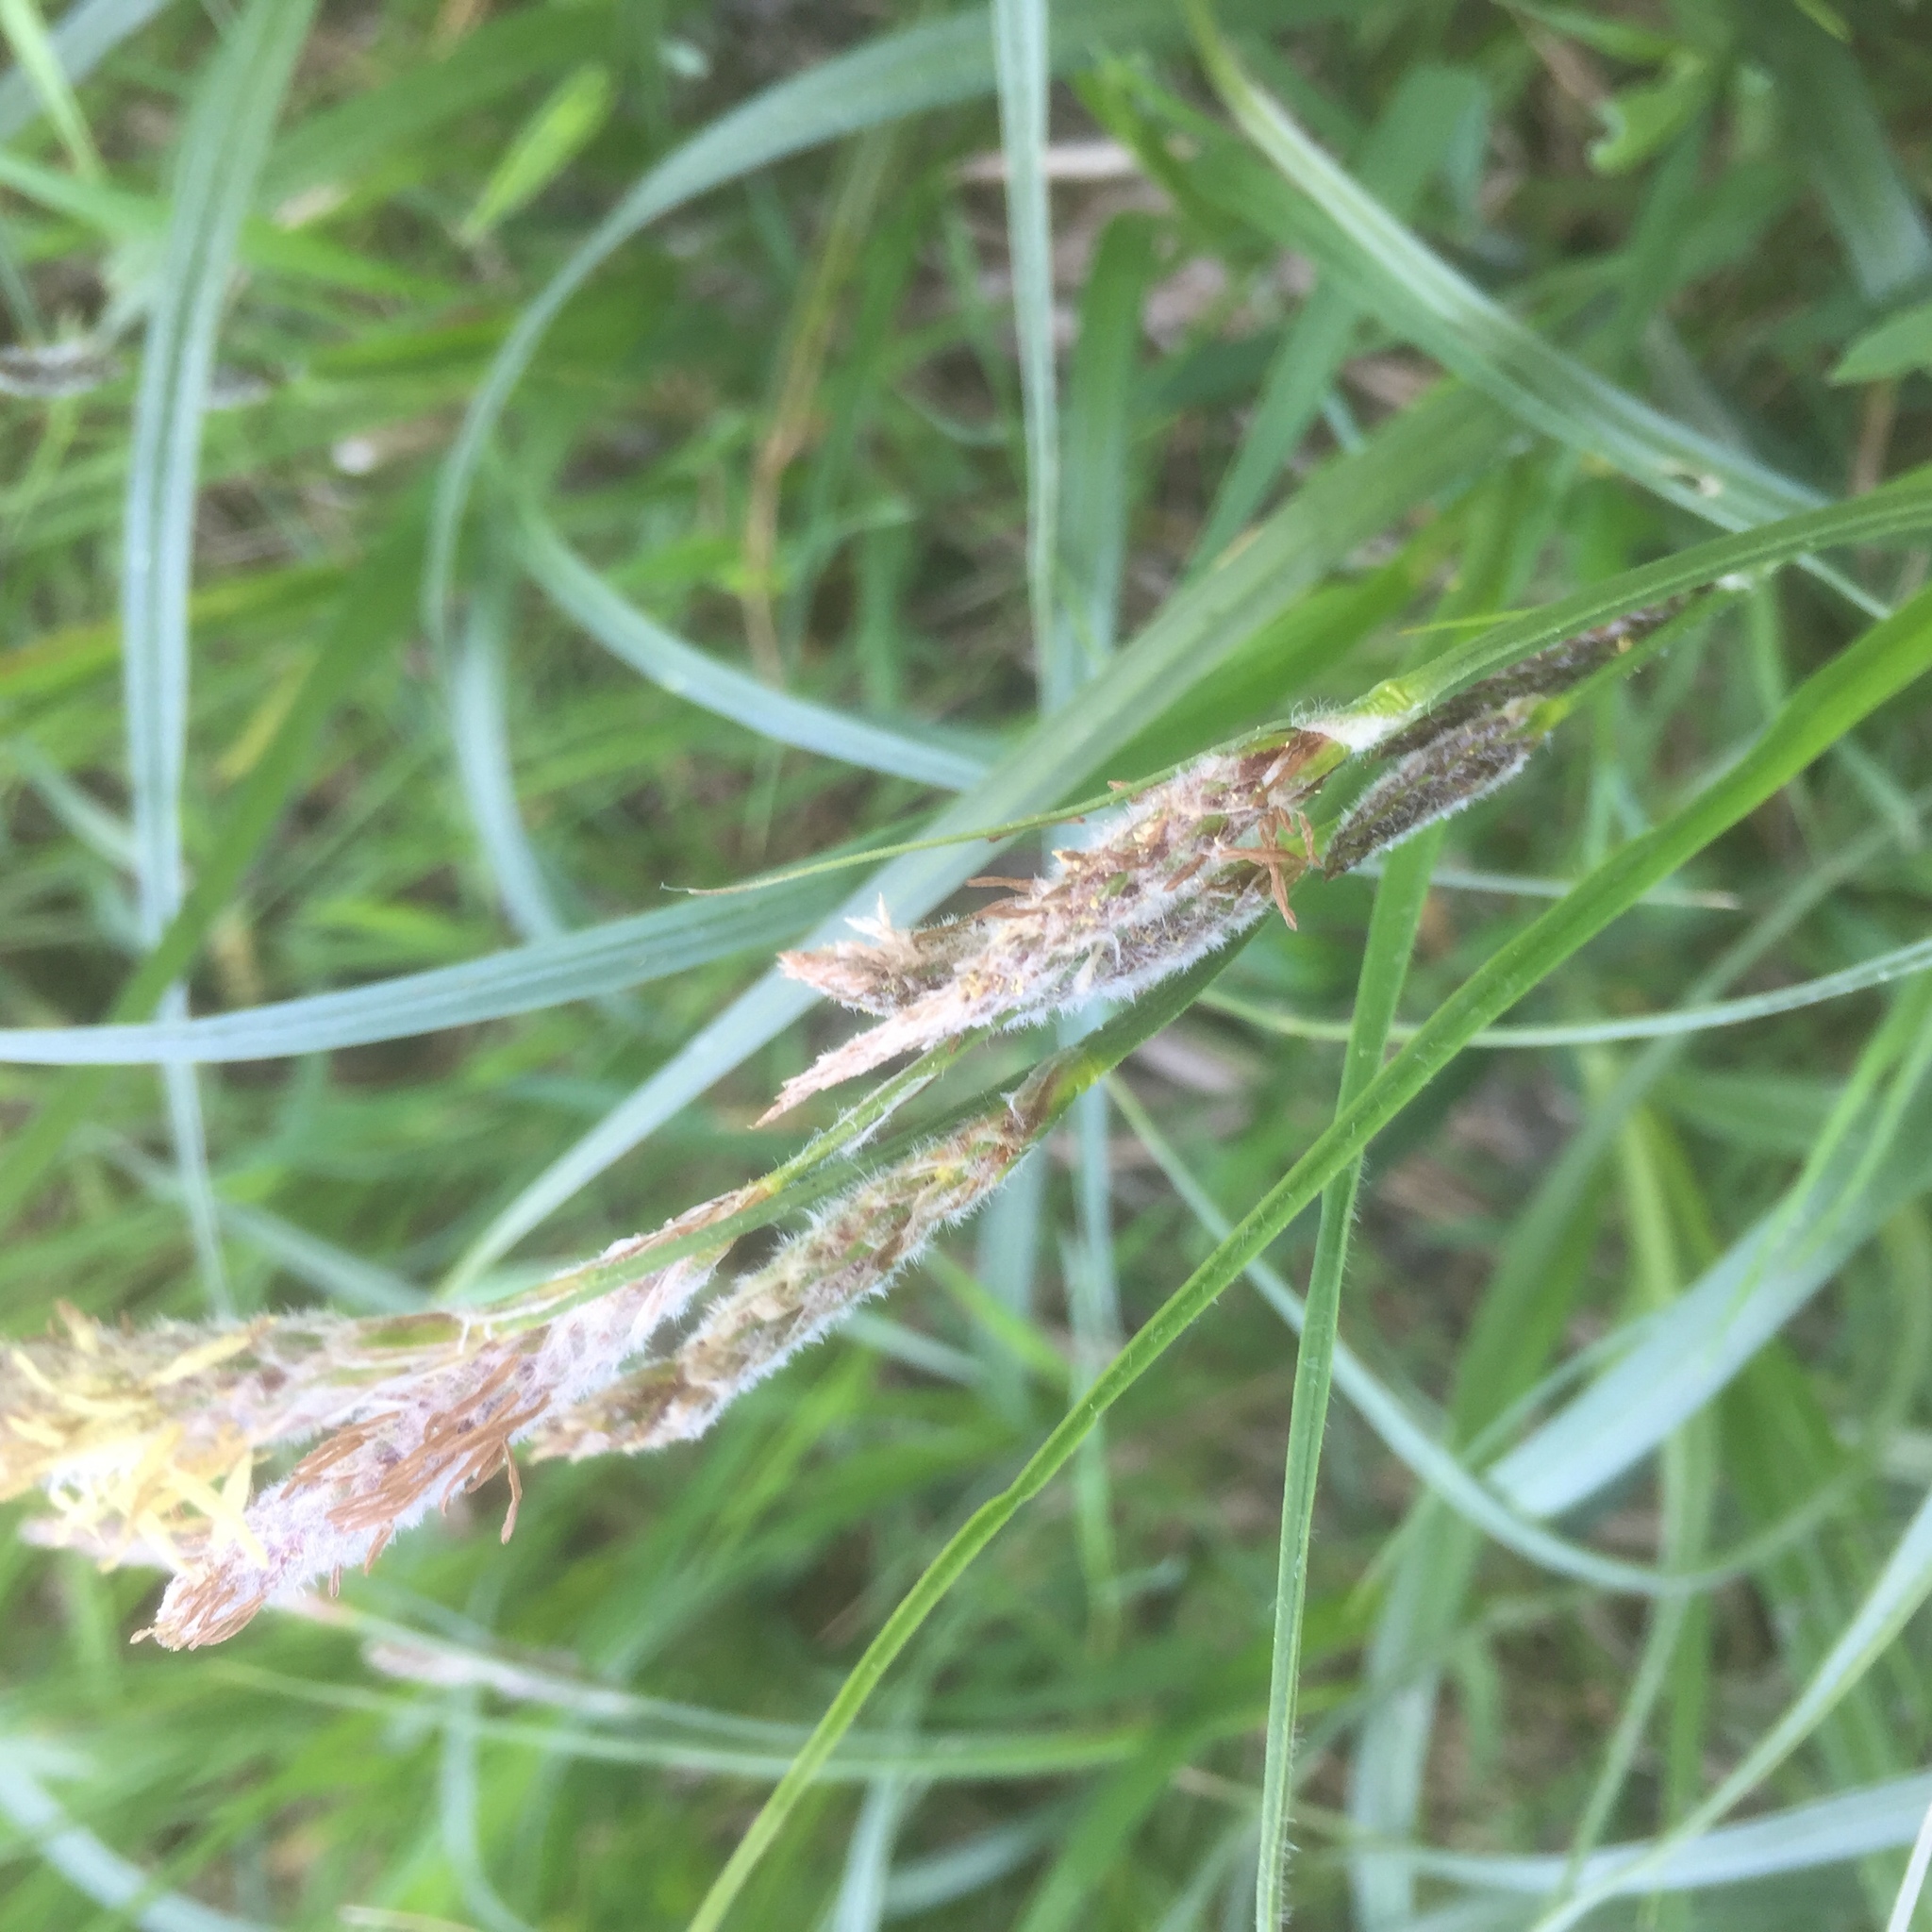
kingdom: Plantae
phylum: Tracheophyta
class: Liliopsida
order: Poales
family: Cyperaceae
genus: Carex
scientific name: Carex hirta
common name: Hairy sedge
